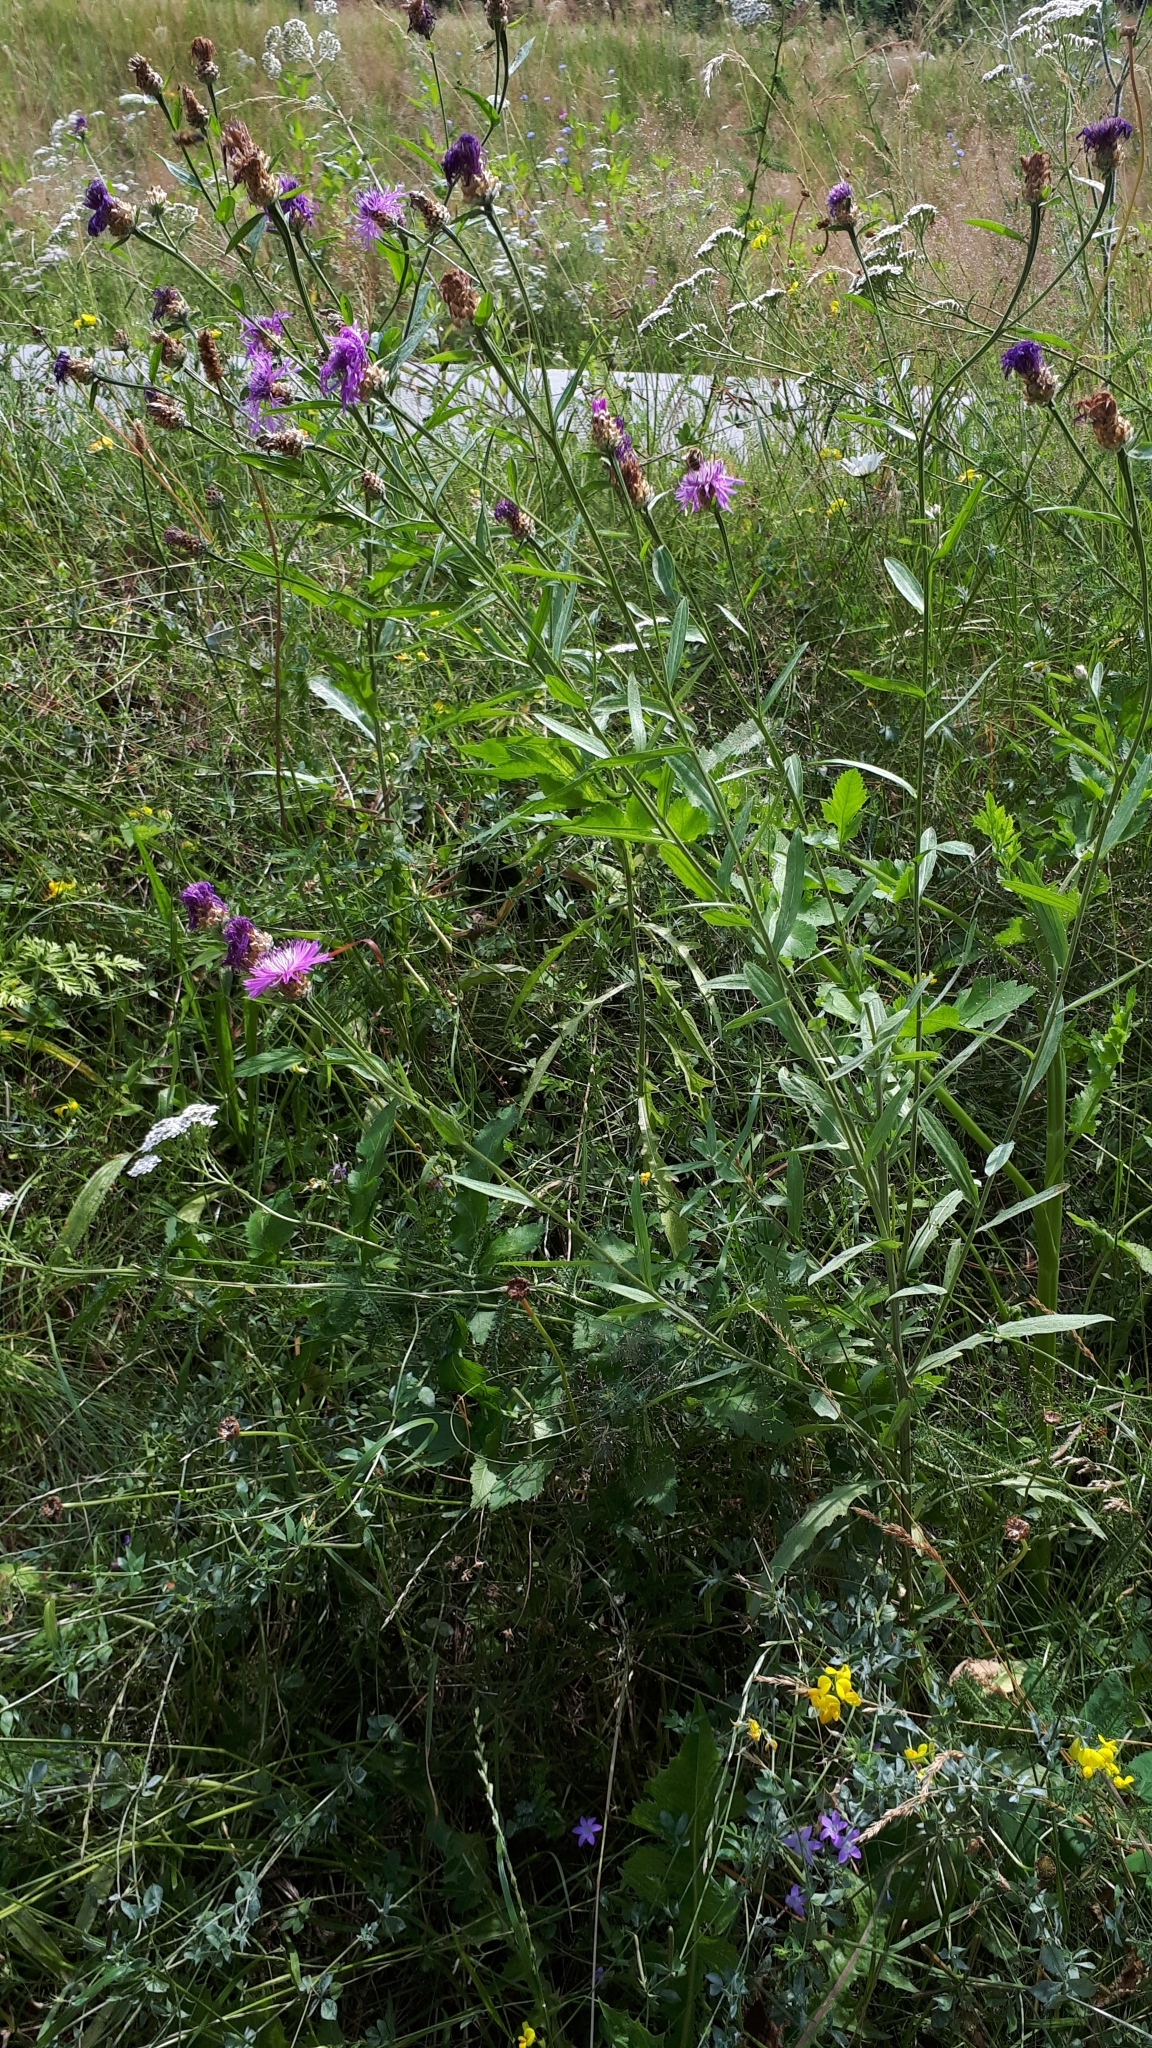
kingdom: Plantae
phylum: Tracheophyta
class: Magnoliopsida
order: Asterales
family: Asteraceae
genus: Centaurea
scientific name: Centaurea jacea
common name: Brown knapweed
